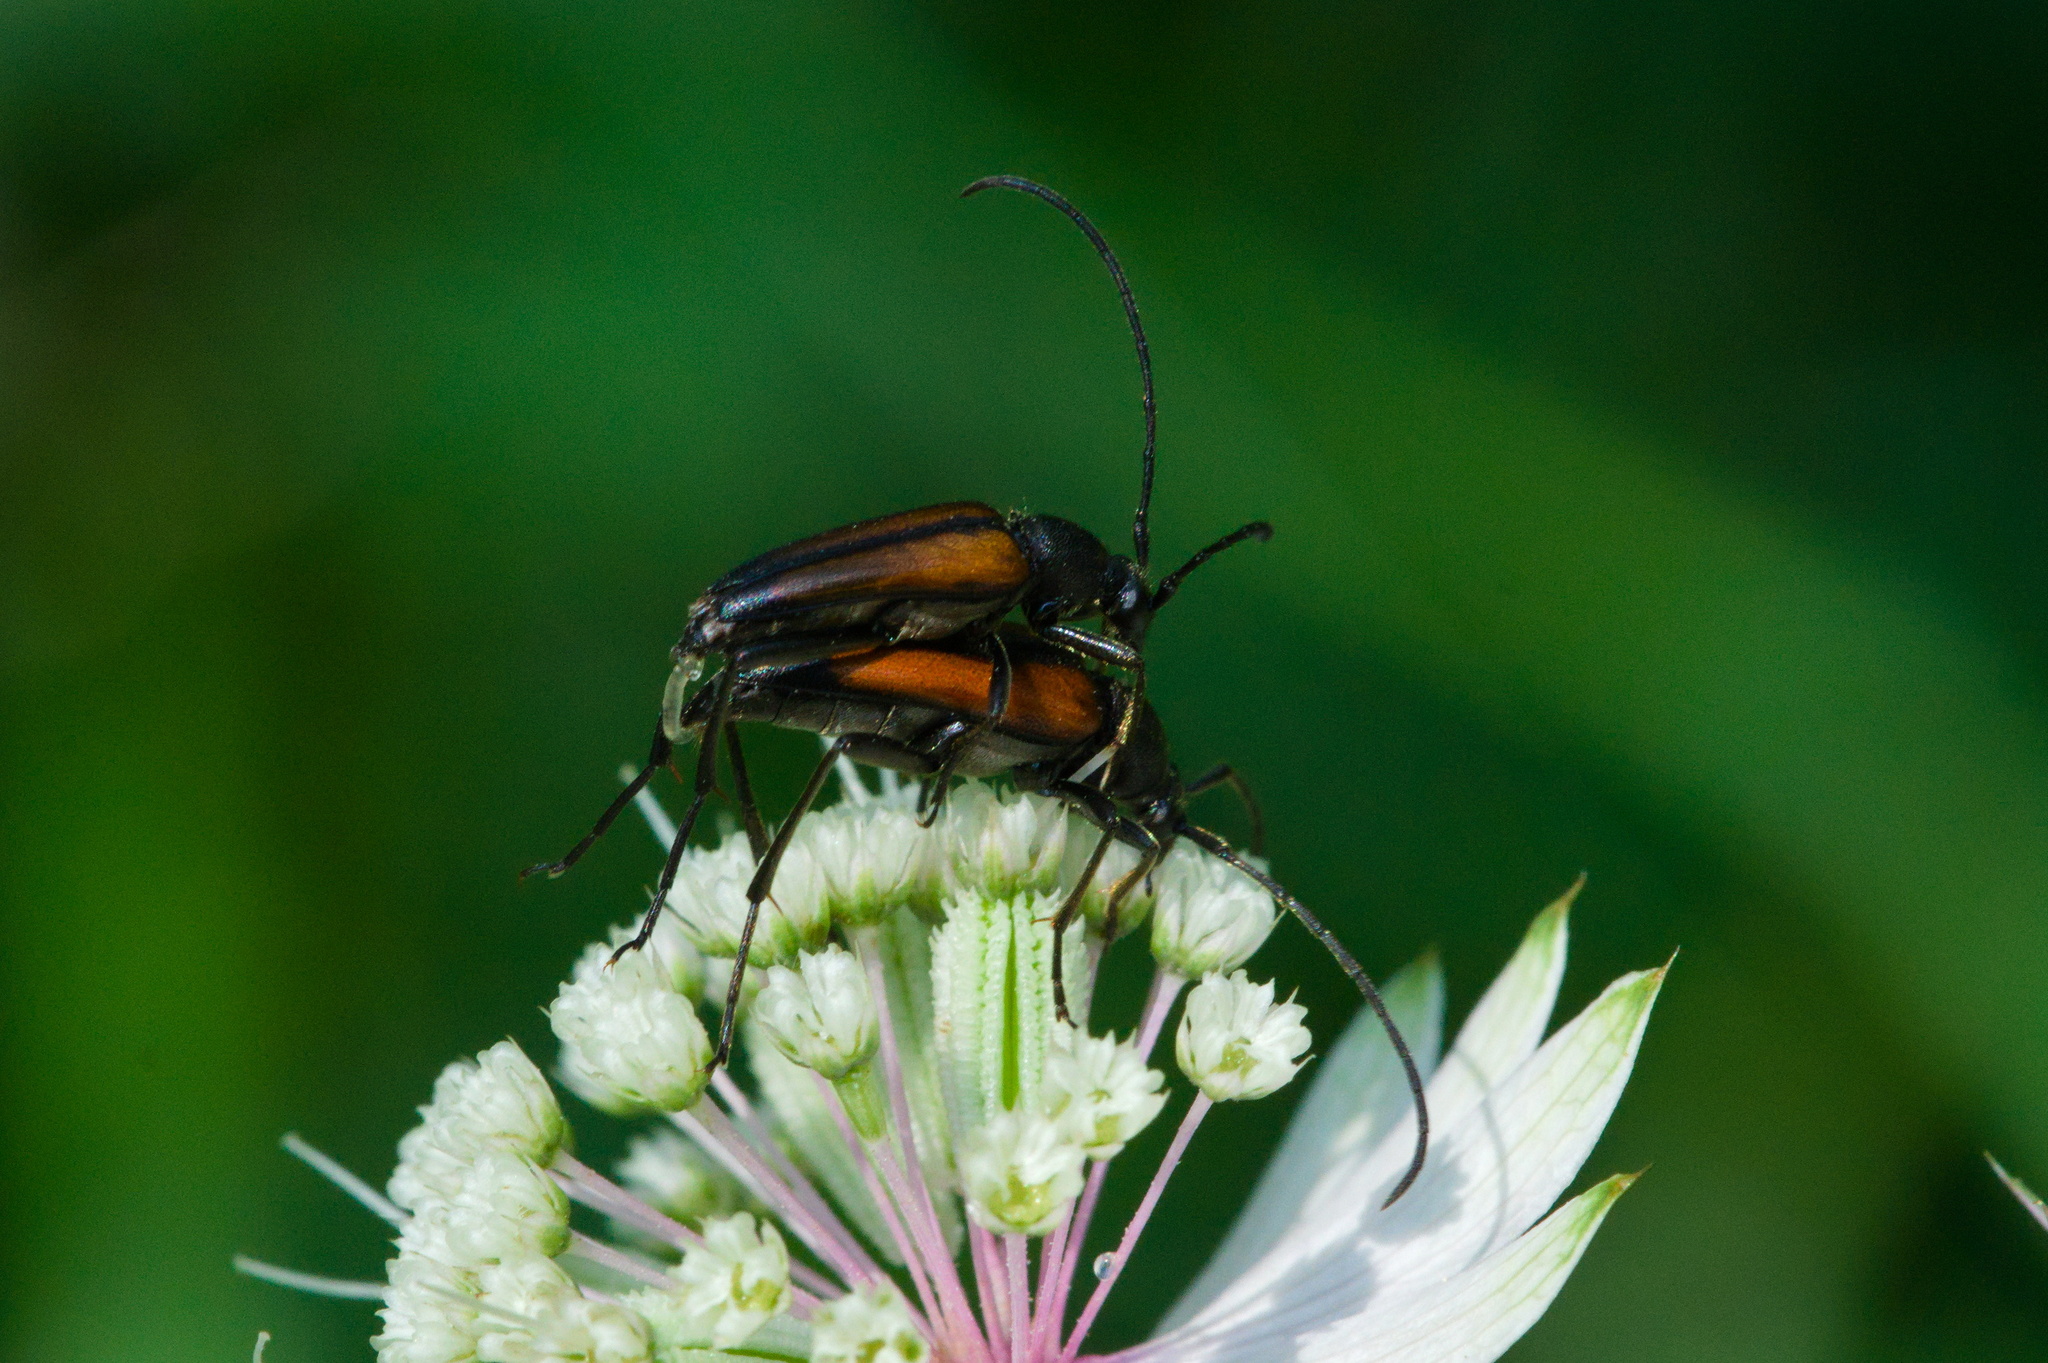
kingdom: Animalia
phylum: Arthropoda
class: Insecta
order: Coleoptera
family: Cerambycidae
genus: Stenurella
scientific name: Stenurella melanura
